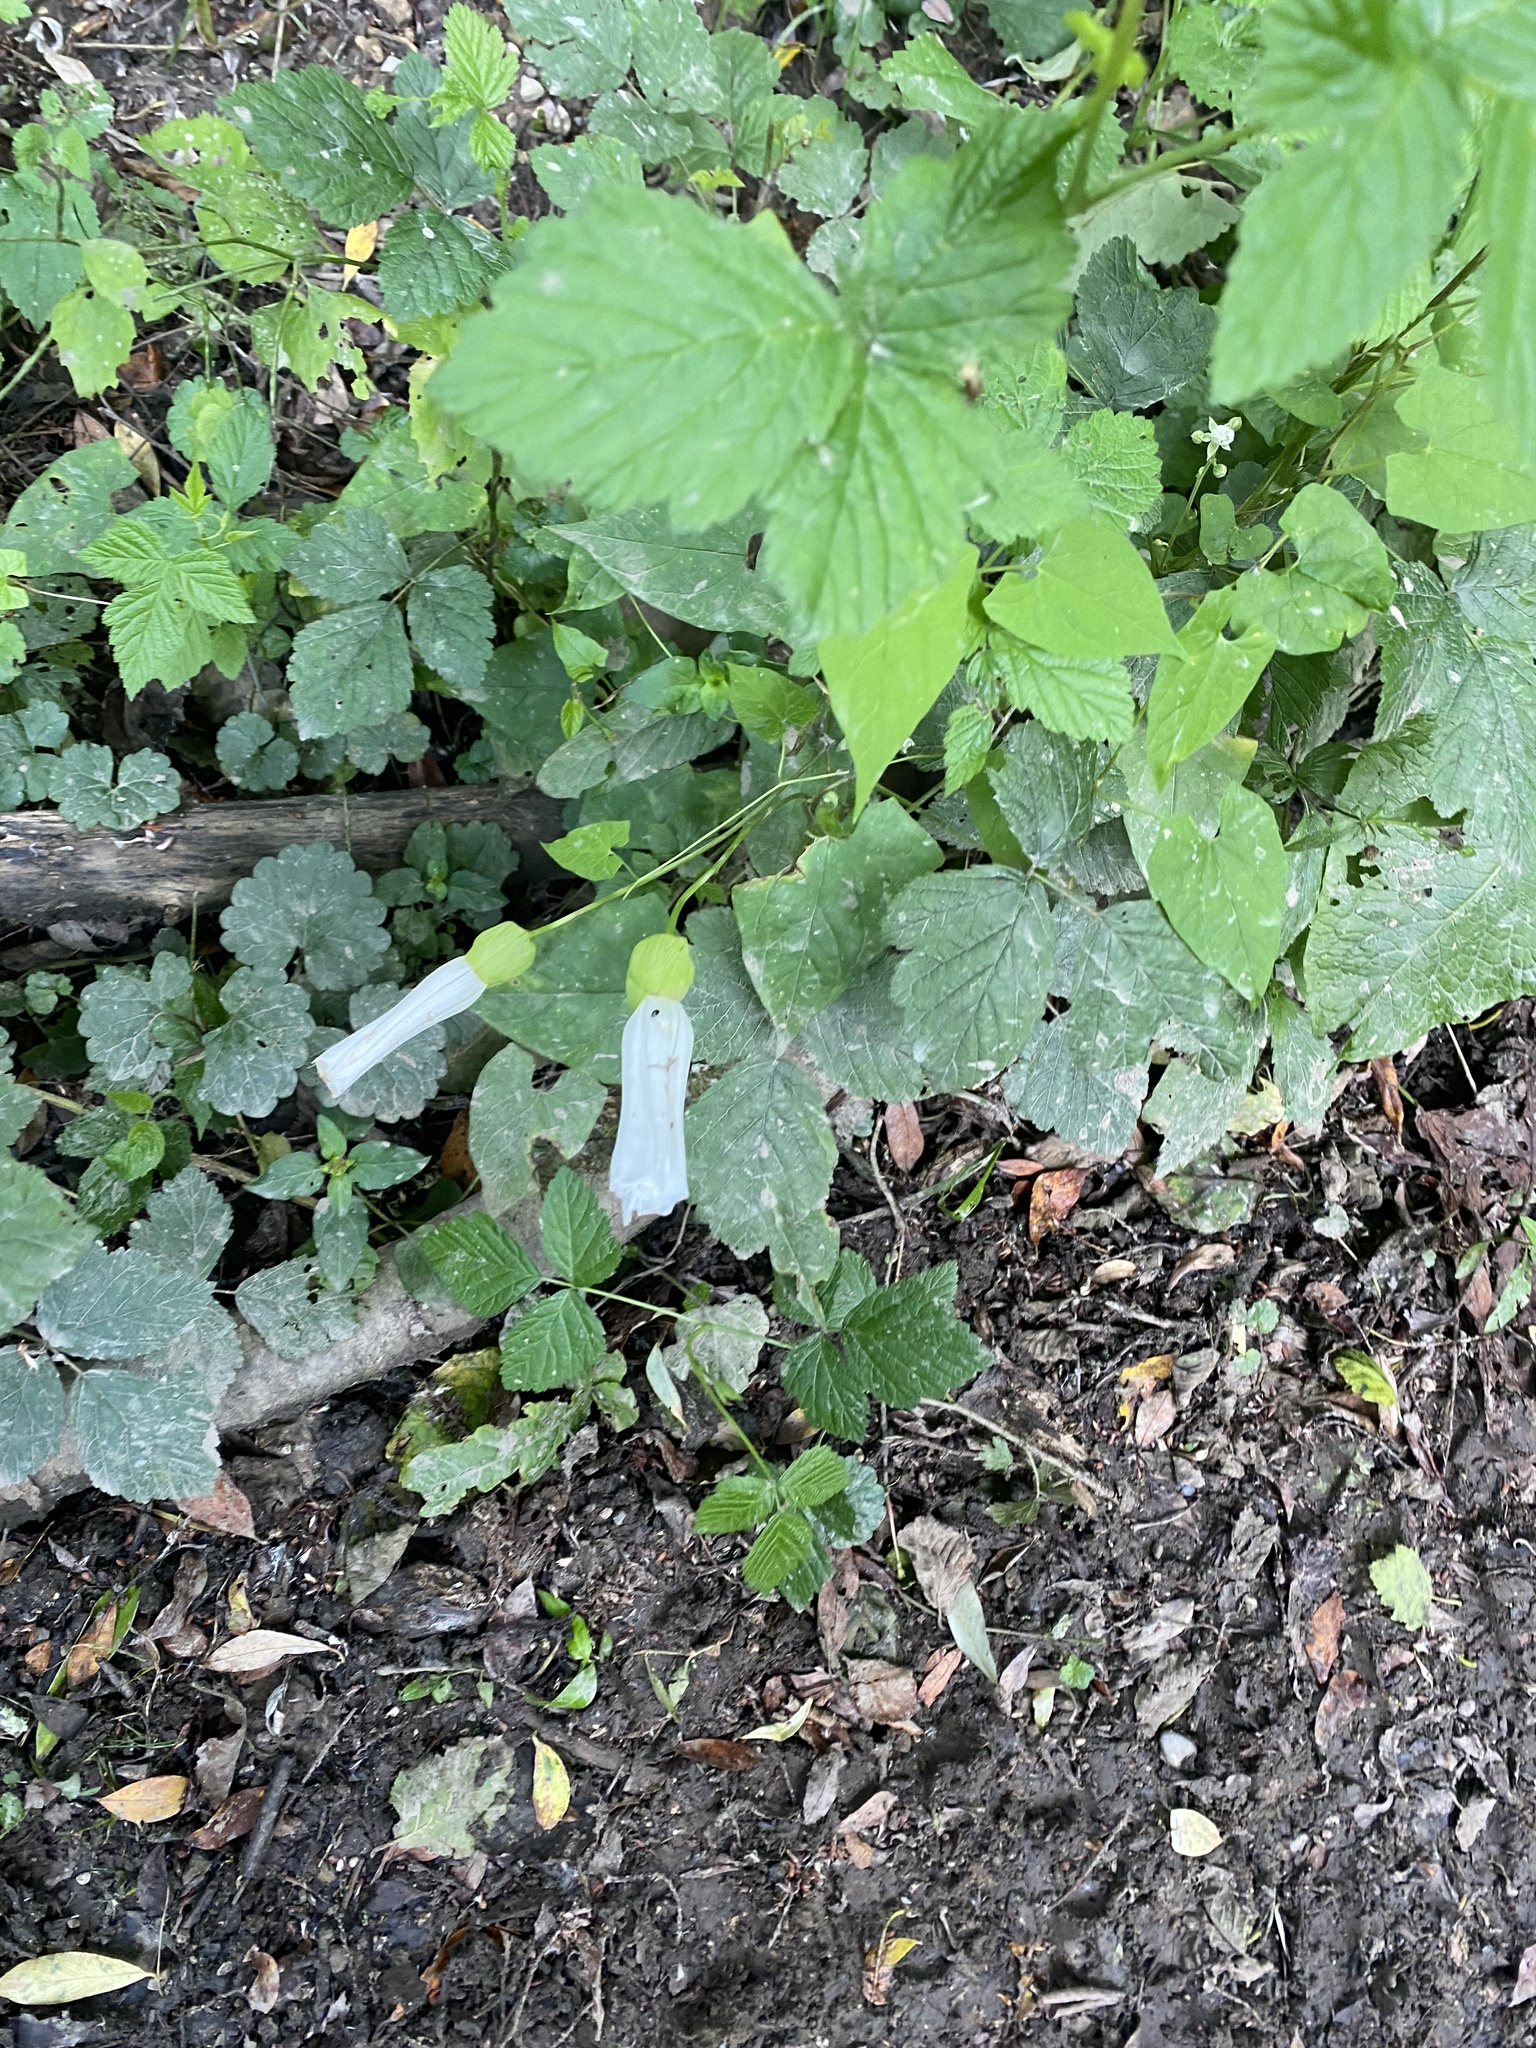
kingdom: Plantae
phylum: Tracheophyta
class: Magnoliopsida
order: Solanales
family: Convolvulaceae
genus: Calystegia
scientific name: Calystegia silvatica
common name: Large bindweed
